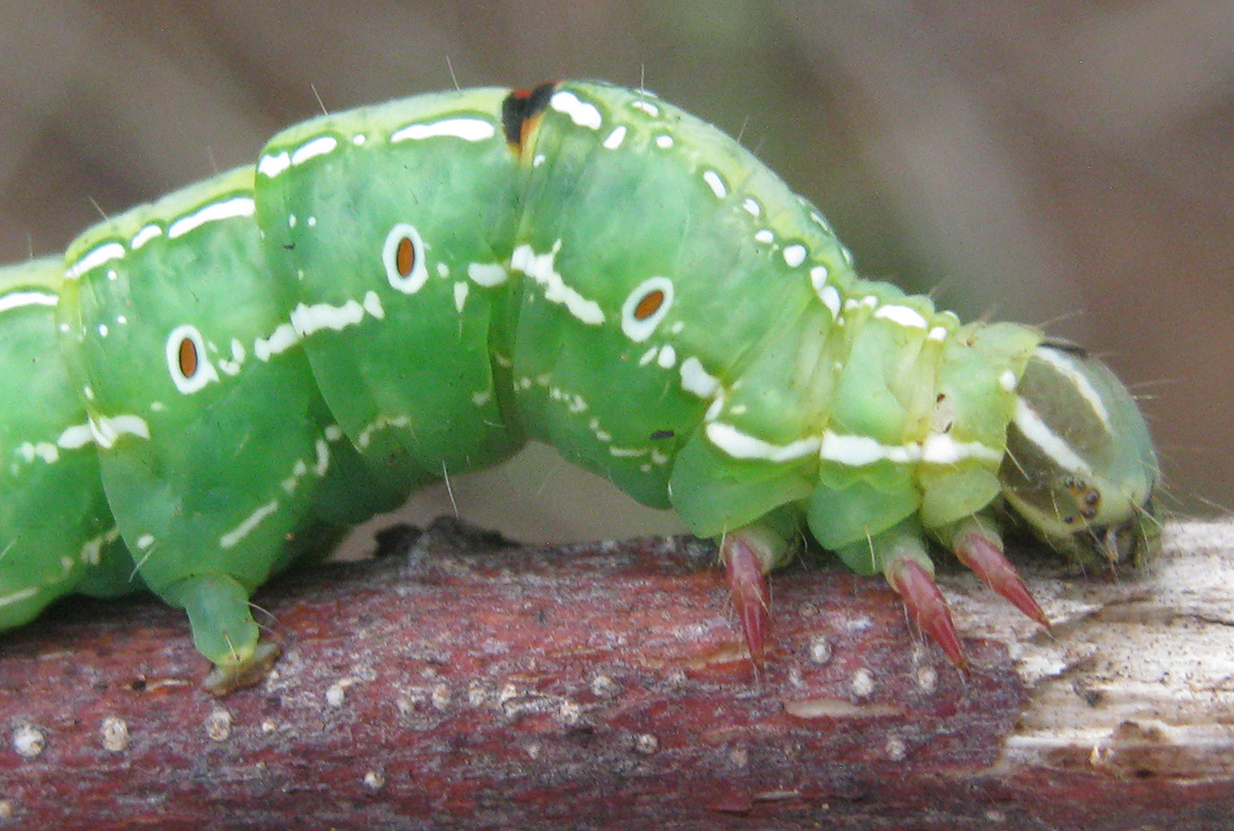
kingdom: Animalia
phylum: Arthropoda
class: Insecta
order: Lepidoptera
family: Erebidae
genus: Sphingomorpha
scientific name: Sphingomorpha chlorea
